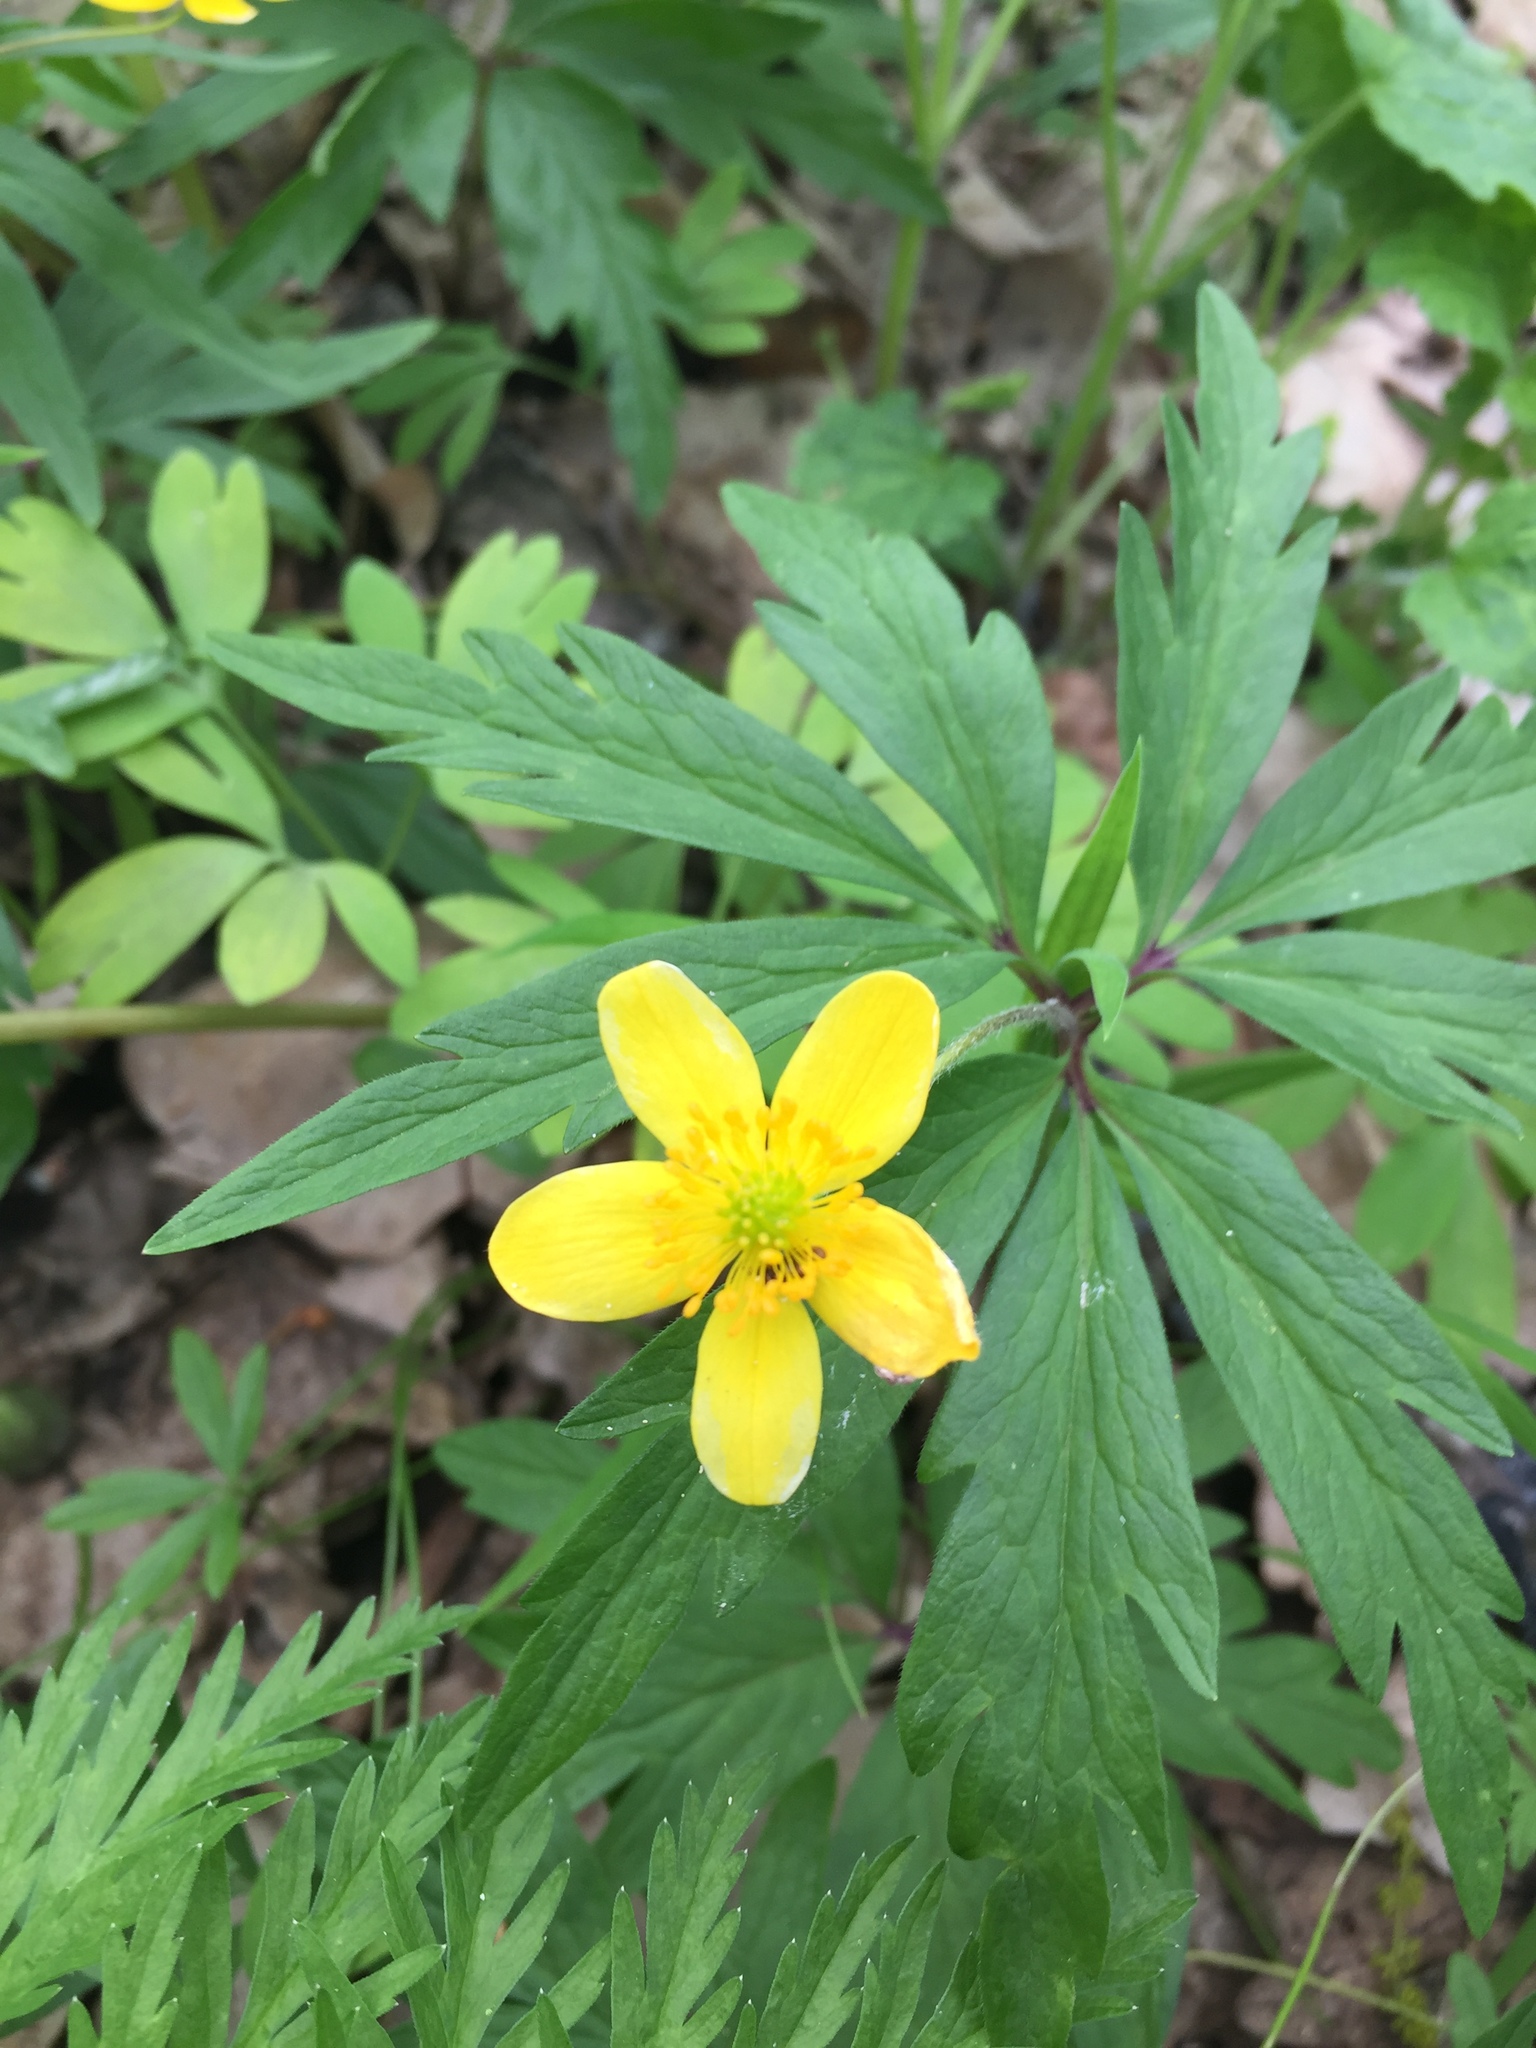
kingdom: Plantae
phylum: Tracheophyta
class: Magnoliopsida
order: Ranunculales
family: Ranunculaceae
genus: Anemone
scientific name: Anemone ranunculoides
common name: Yellow anemone
